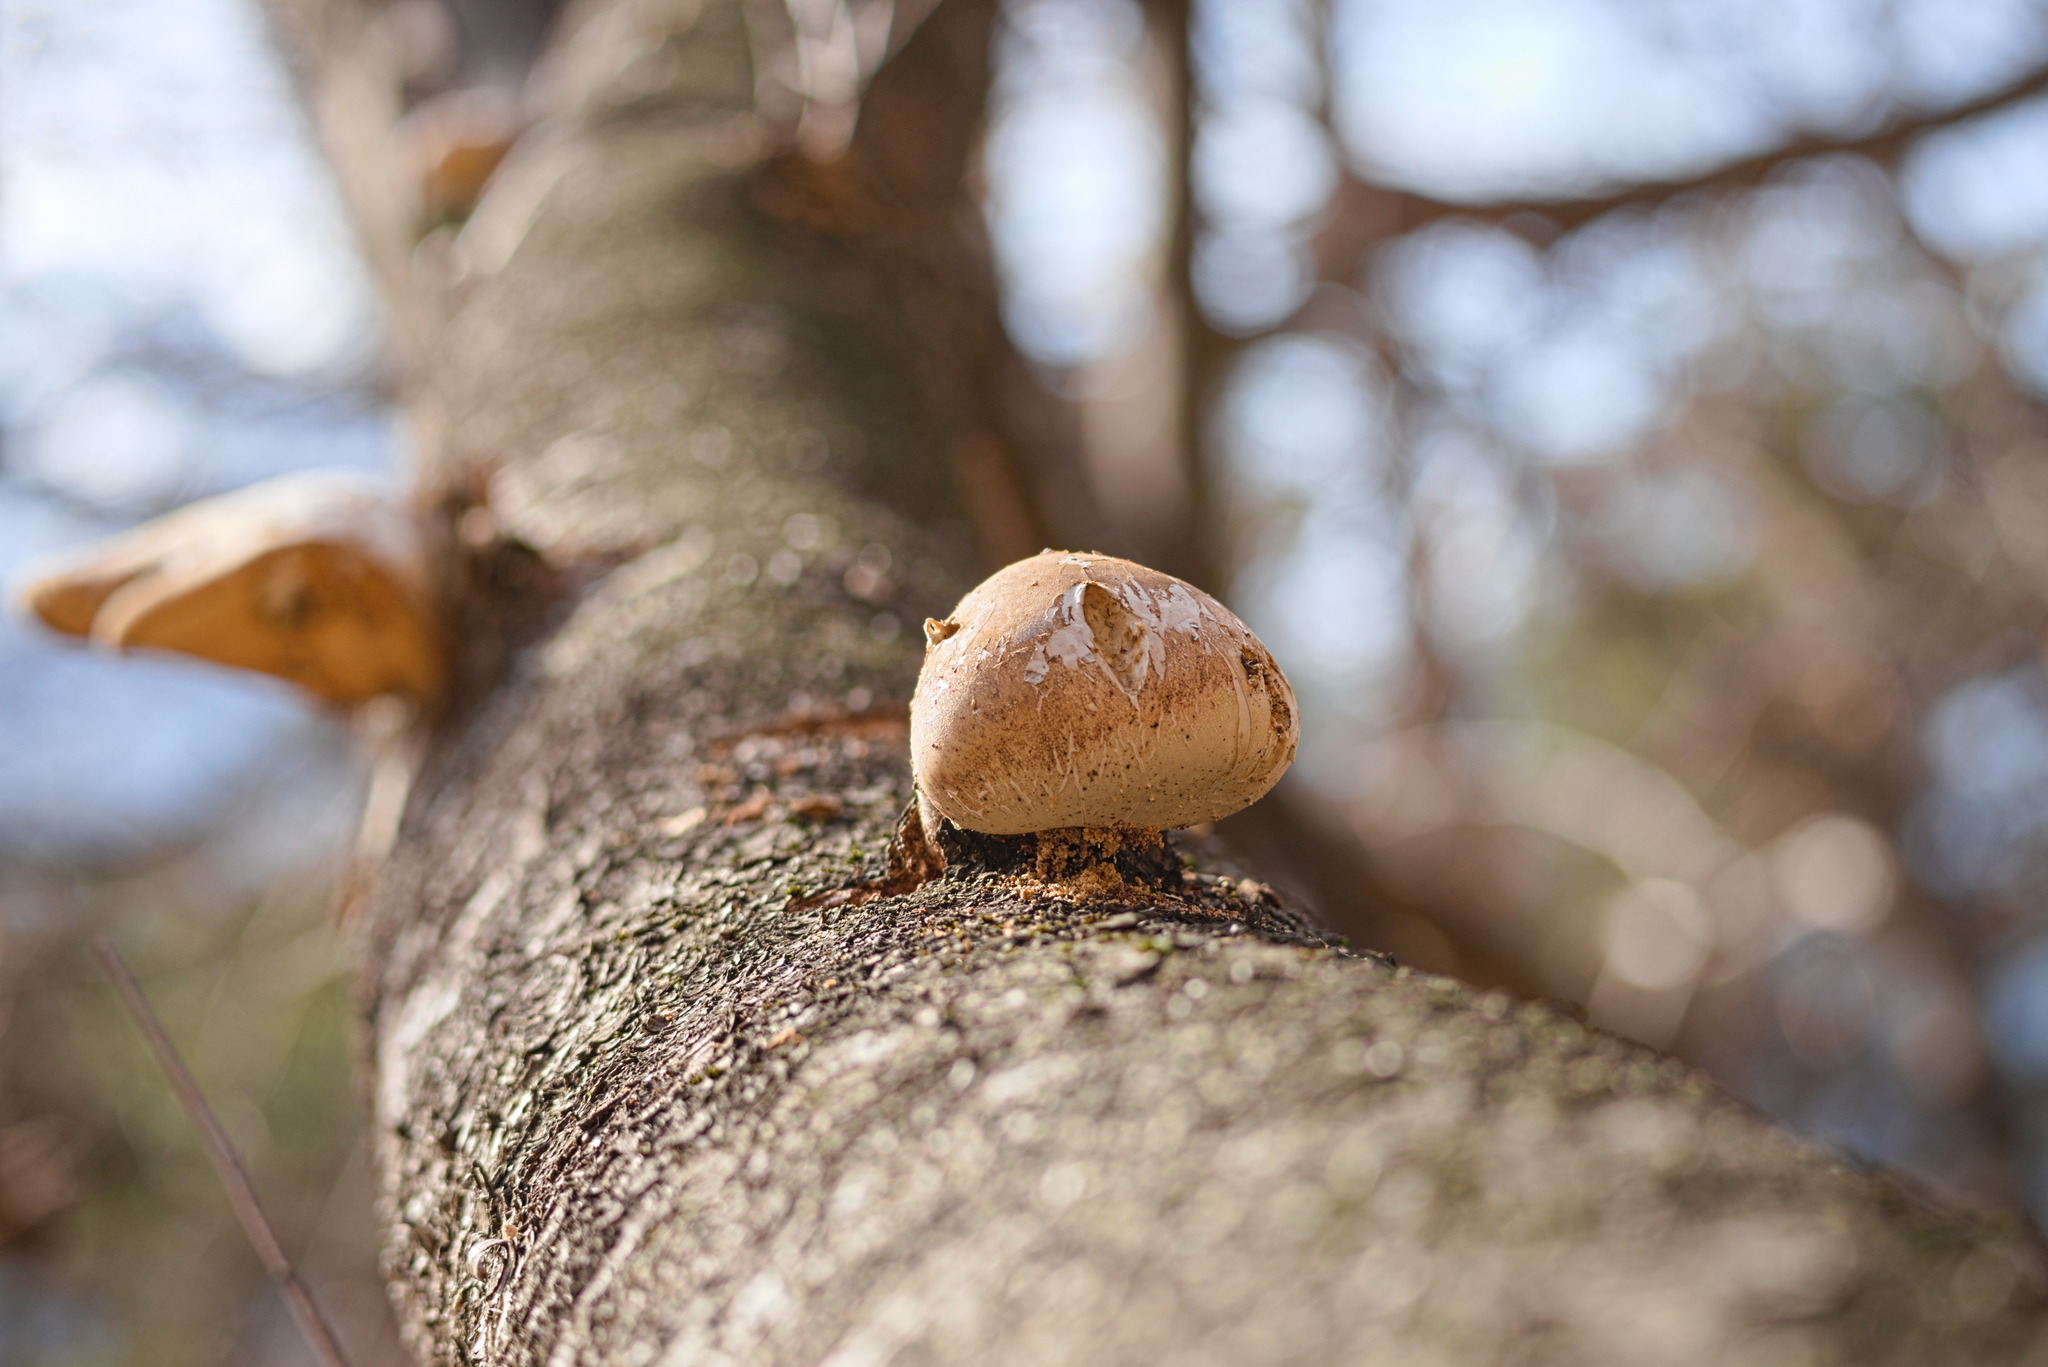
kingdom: Fungi
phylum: Basidiomycota
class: Agaricomycetes
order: Polyporales
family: Fomitopsidaceae
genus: Fomitopsis
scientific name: Fomitopsis betulina
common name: Birch polypore
